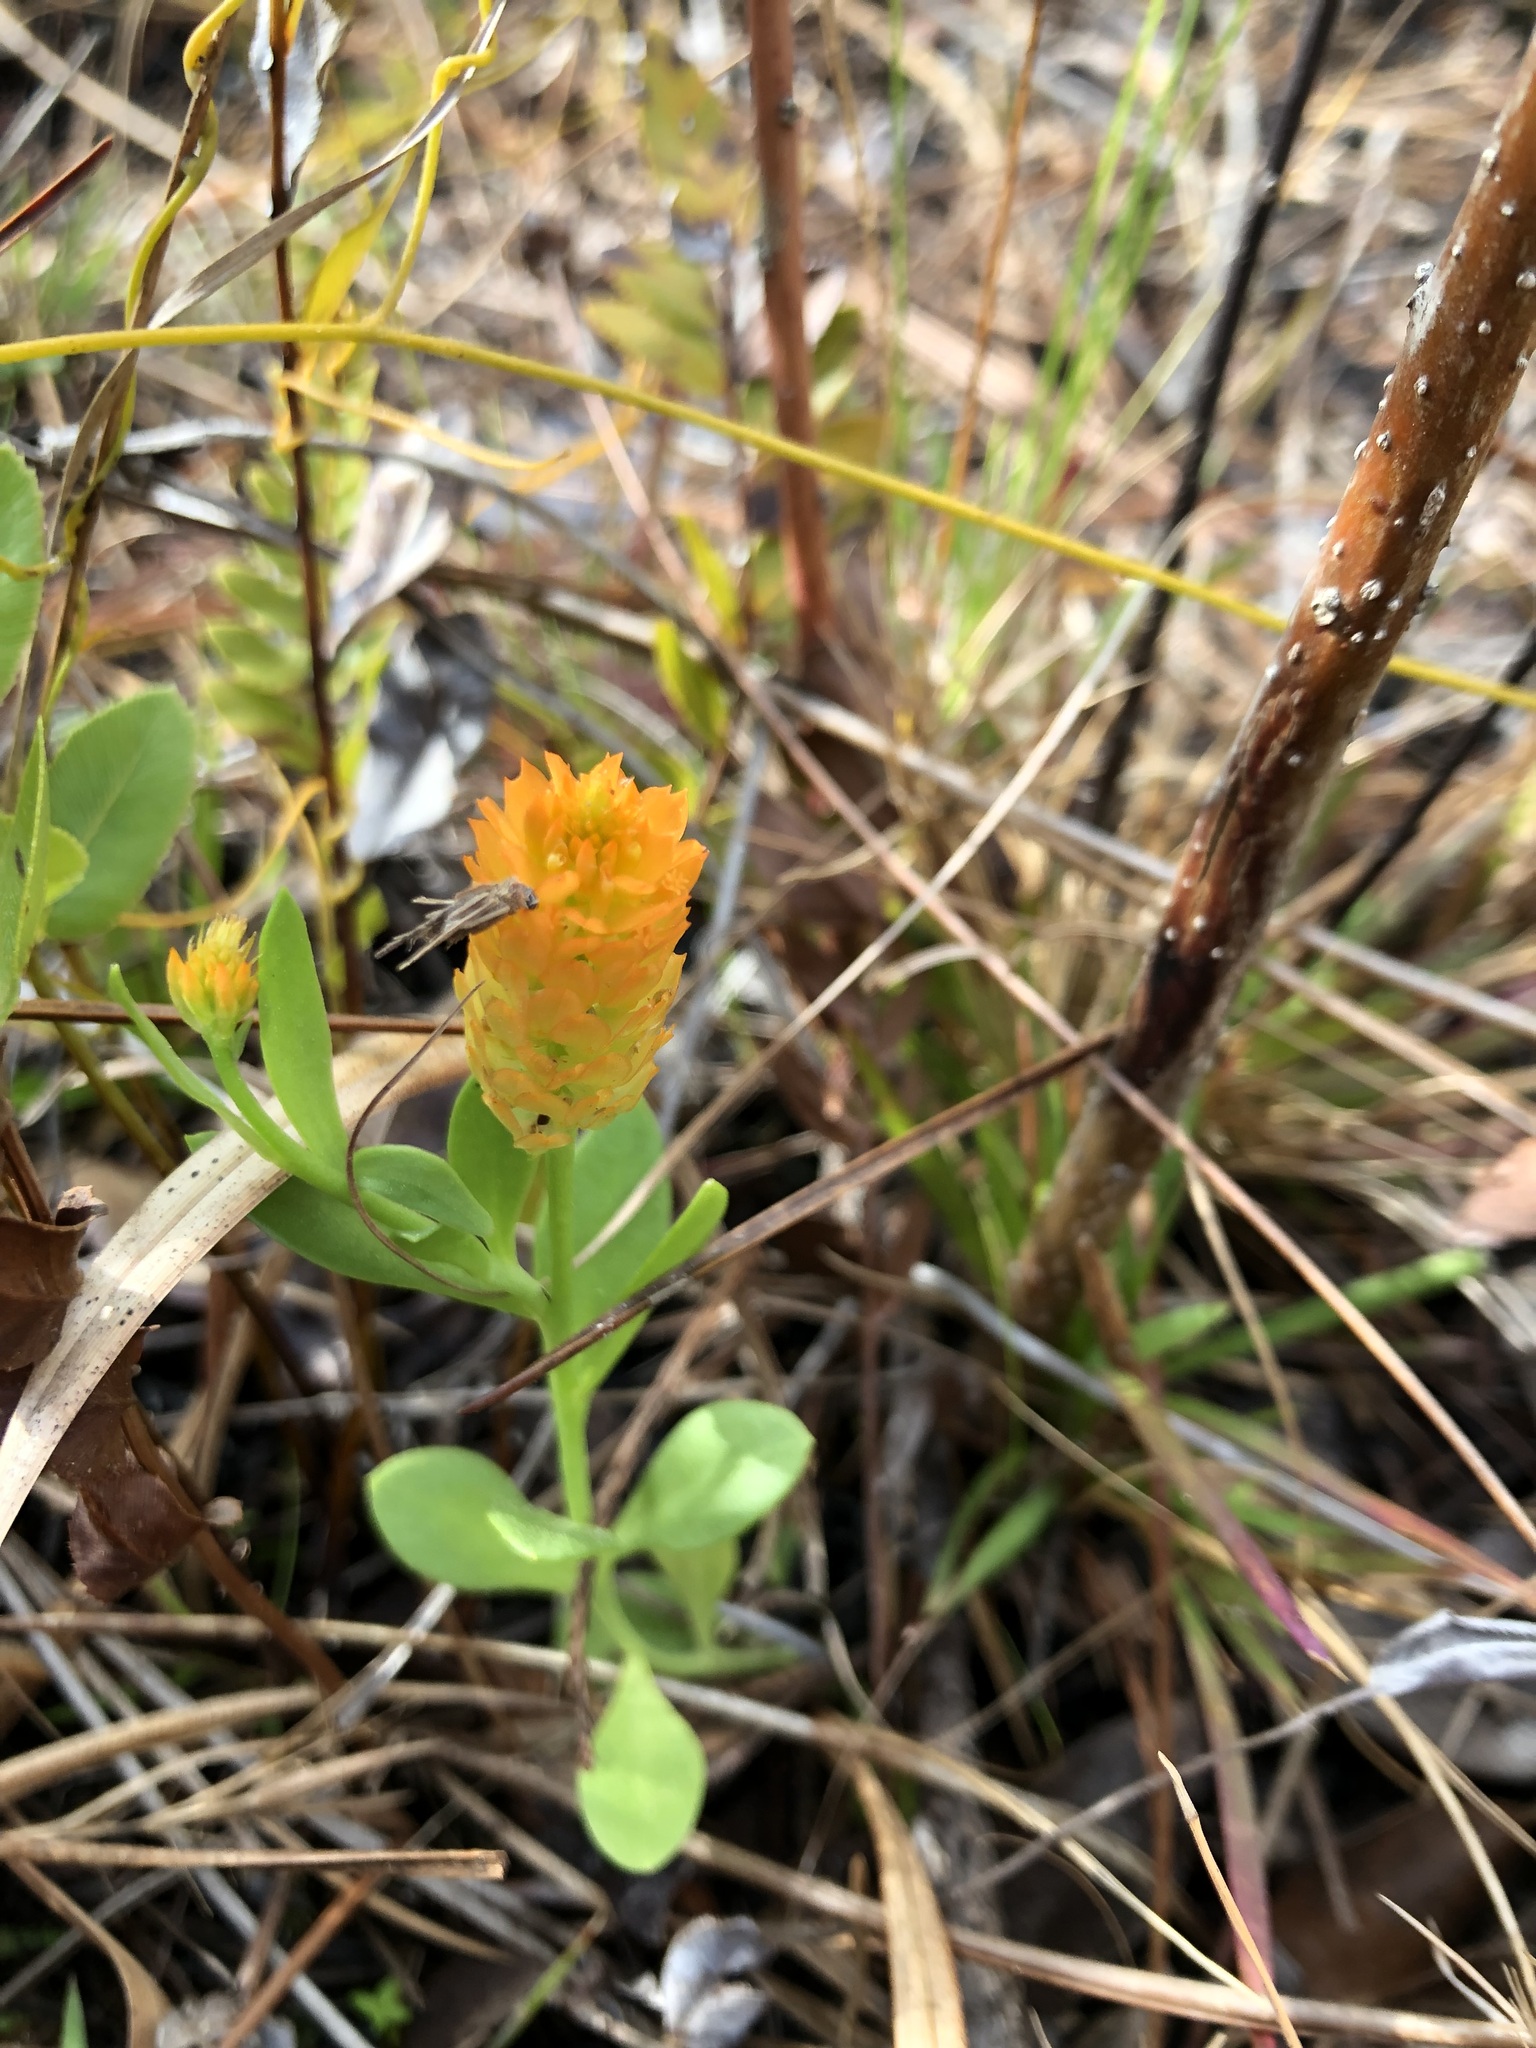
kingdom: Plantae
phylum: Tracheophyta
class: Magnoliopsida
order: Fabales
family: Polygalaceae
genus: Polygala
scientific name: Polygala lutea
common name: Orange milkwort
